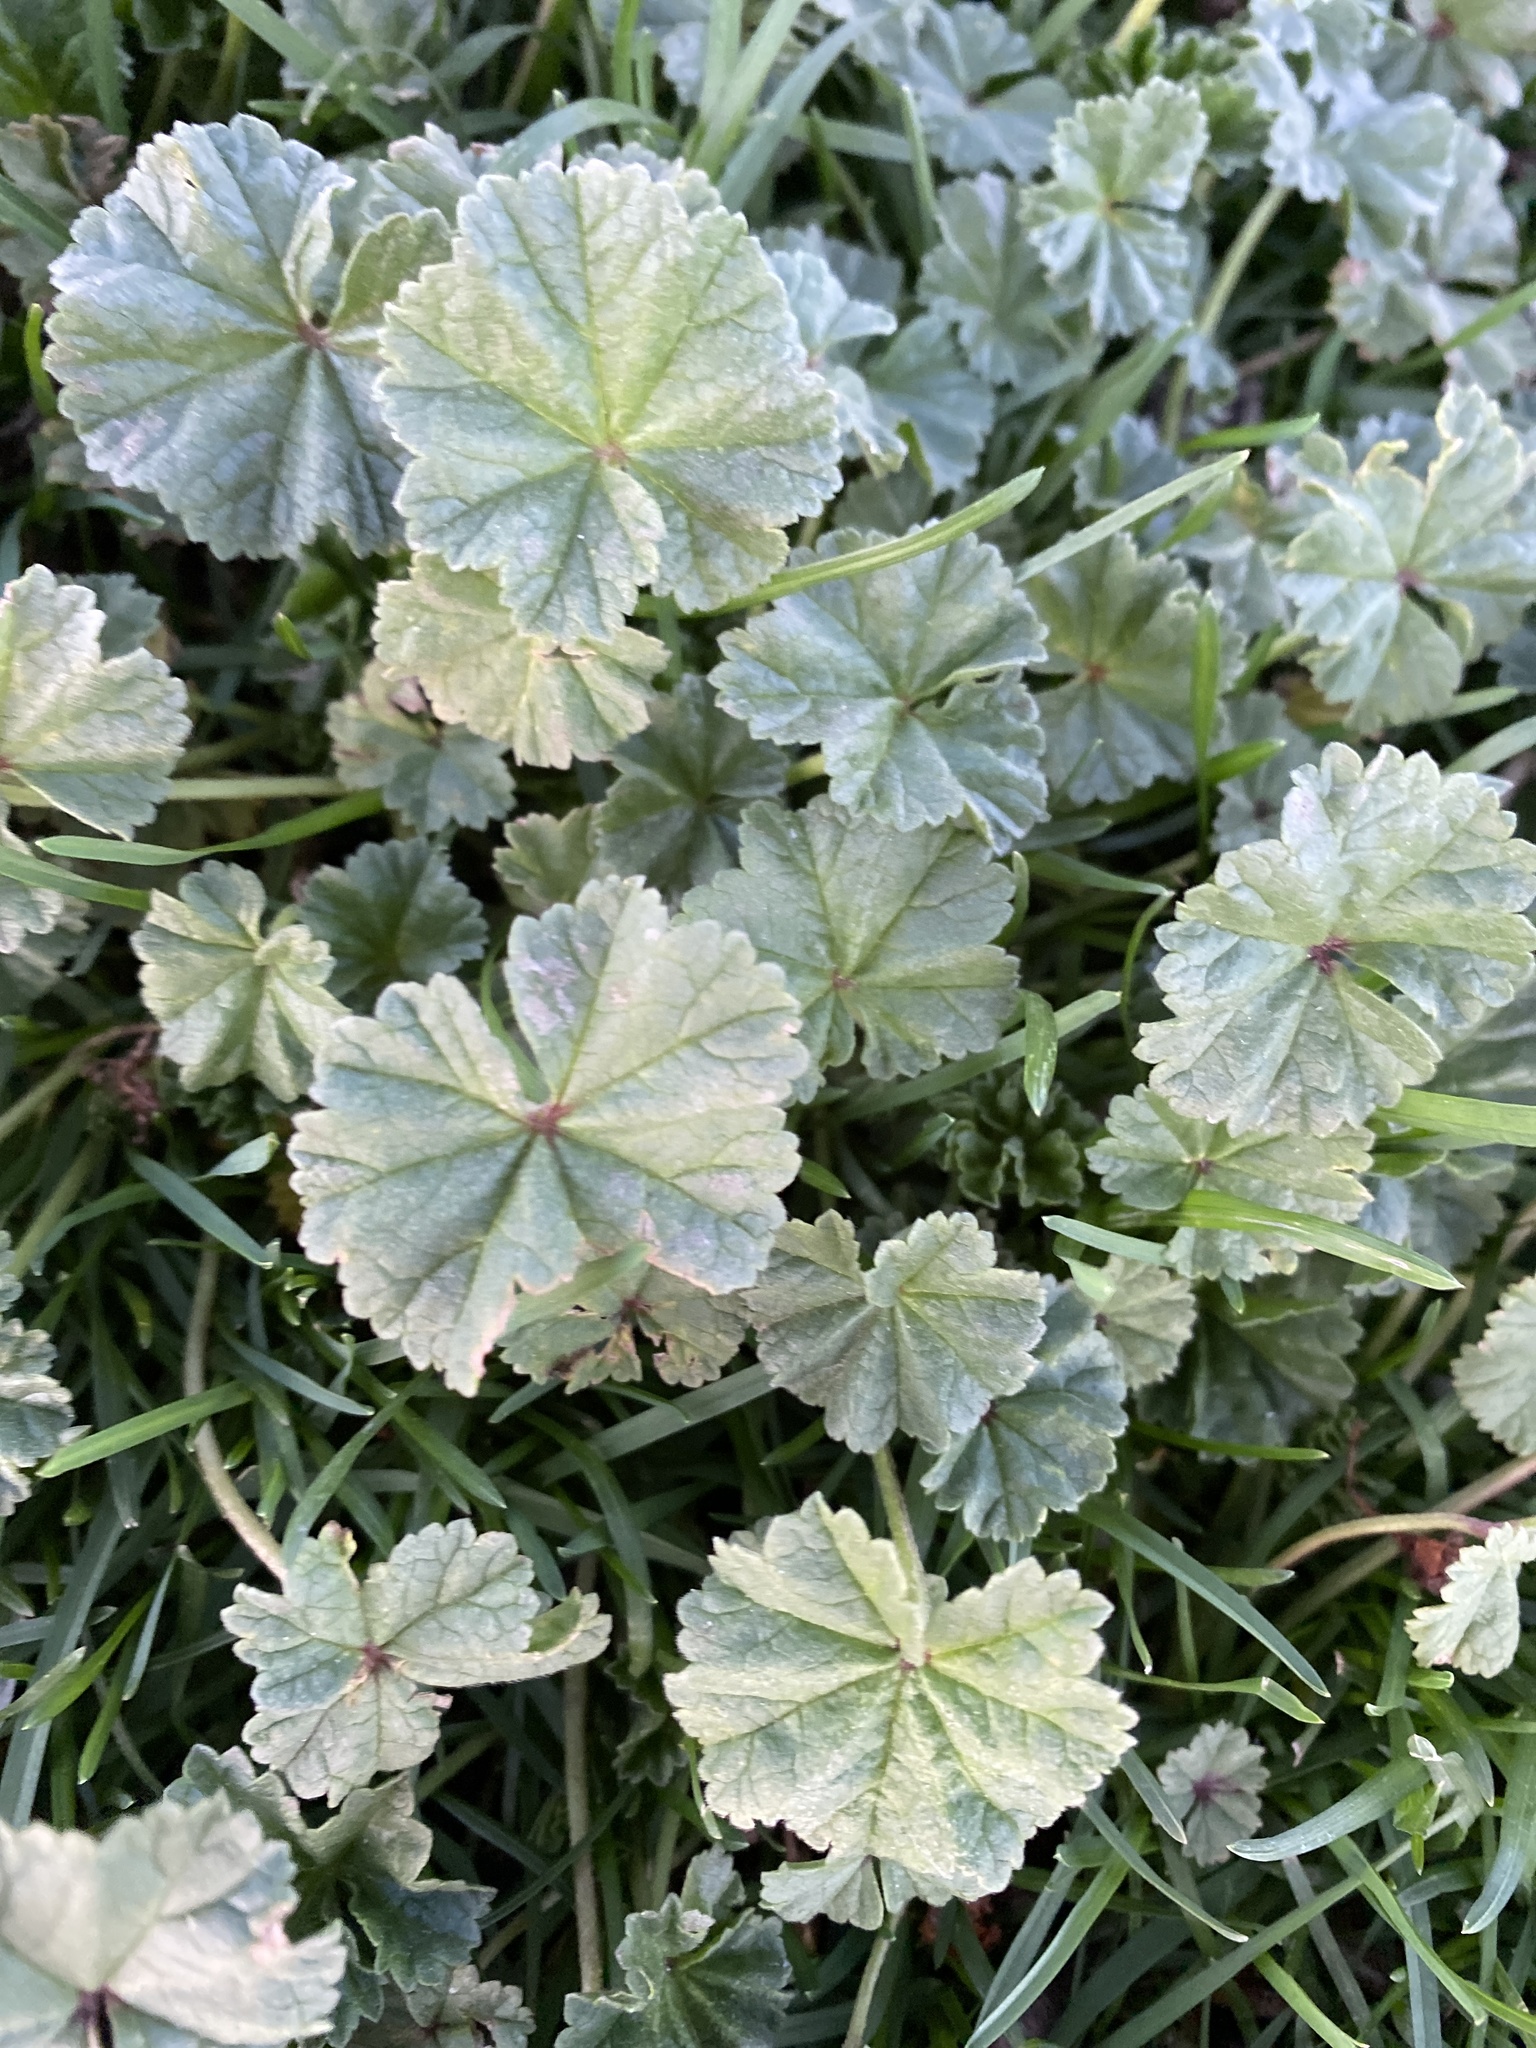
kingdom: Plantae
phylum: Tracheophyta
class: Magnoliopsida
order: Malvales
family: Malvaceae
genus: Malva
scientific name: Malva neglecta
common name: Common mallow
